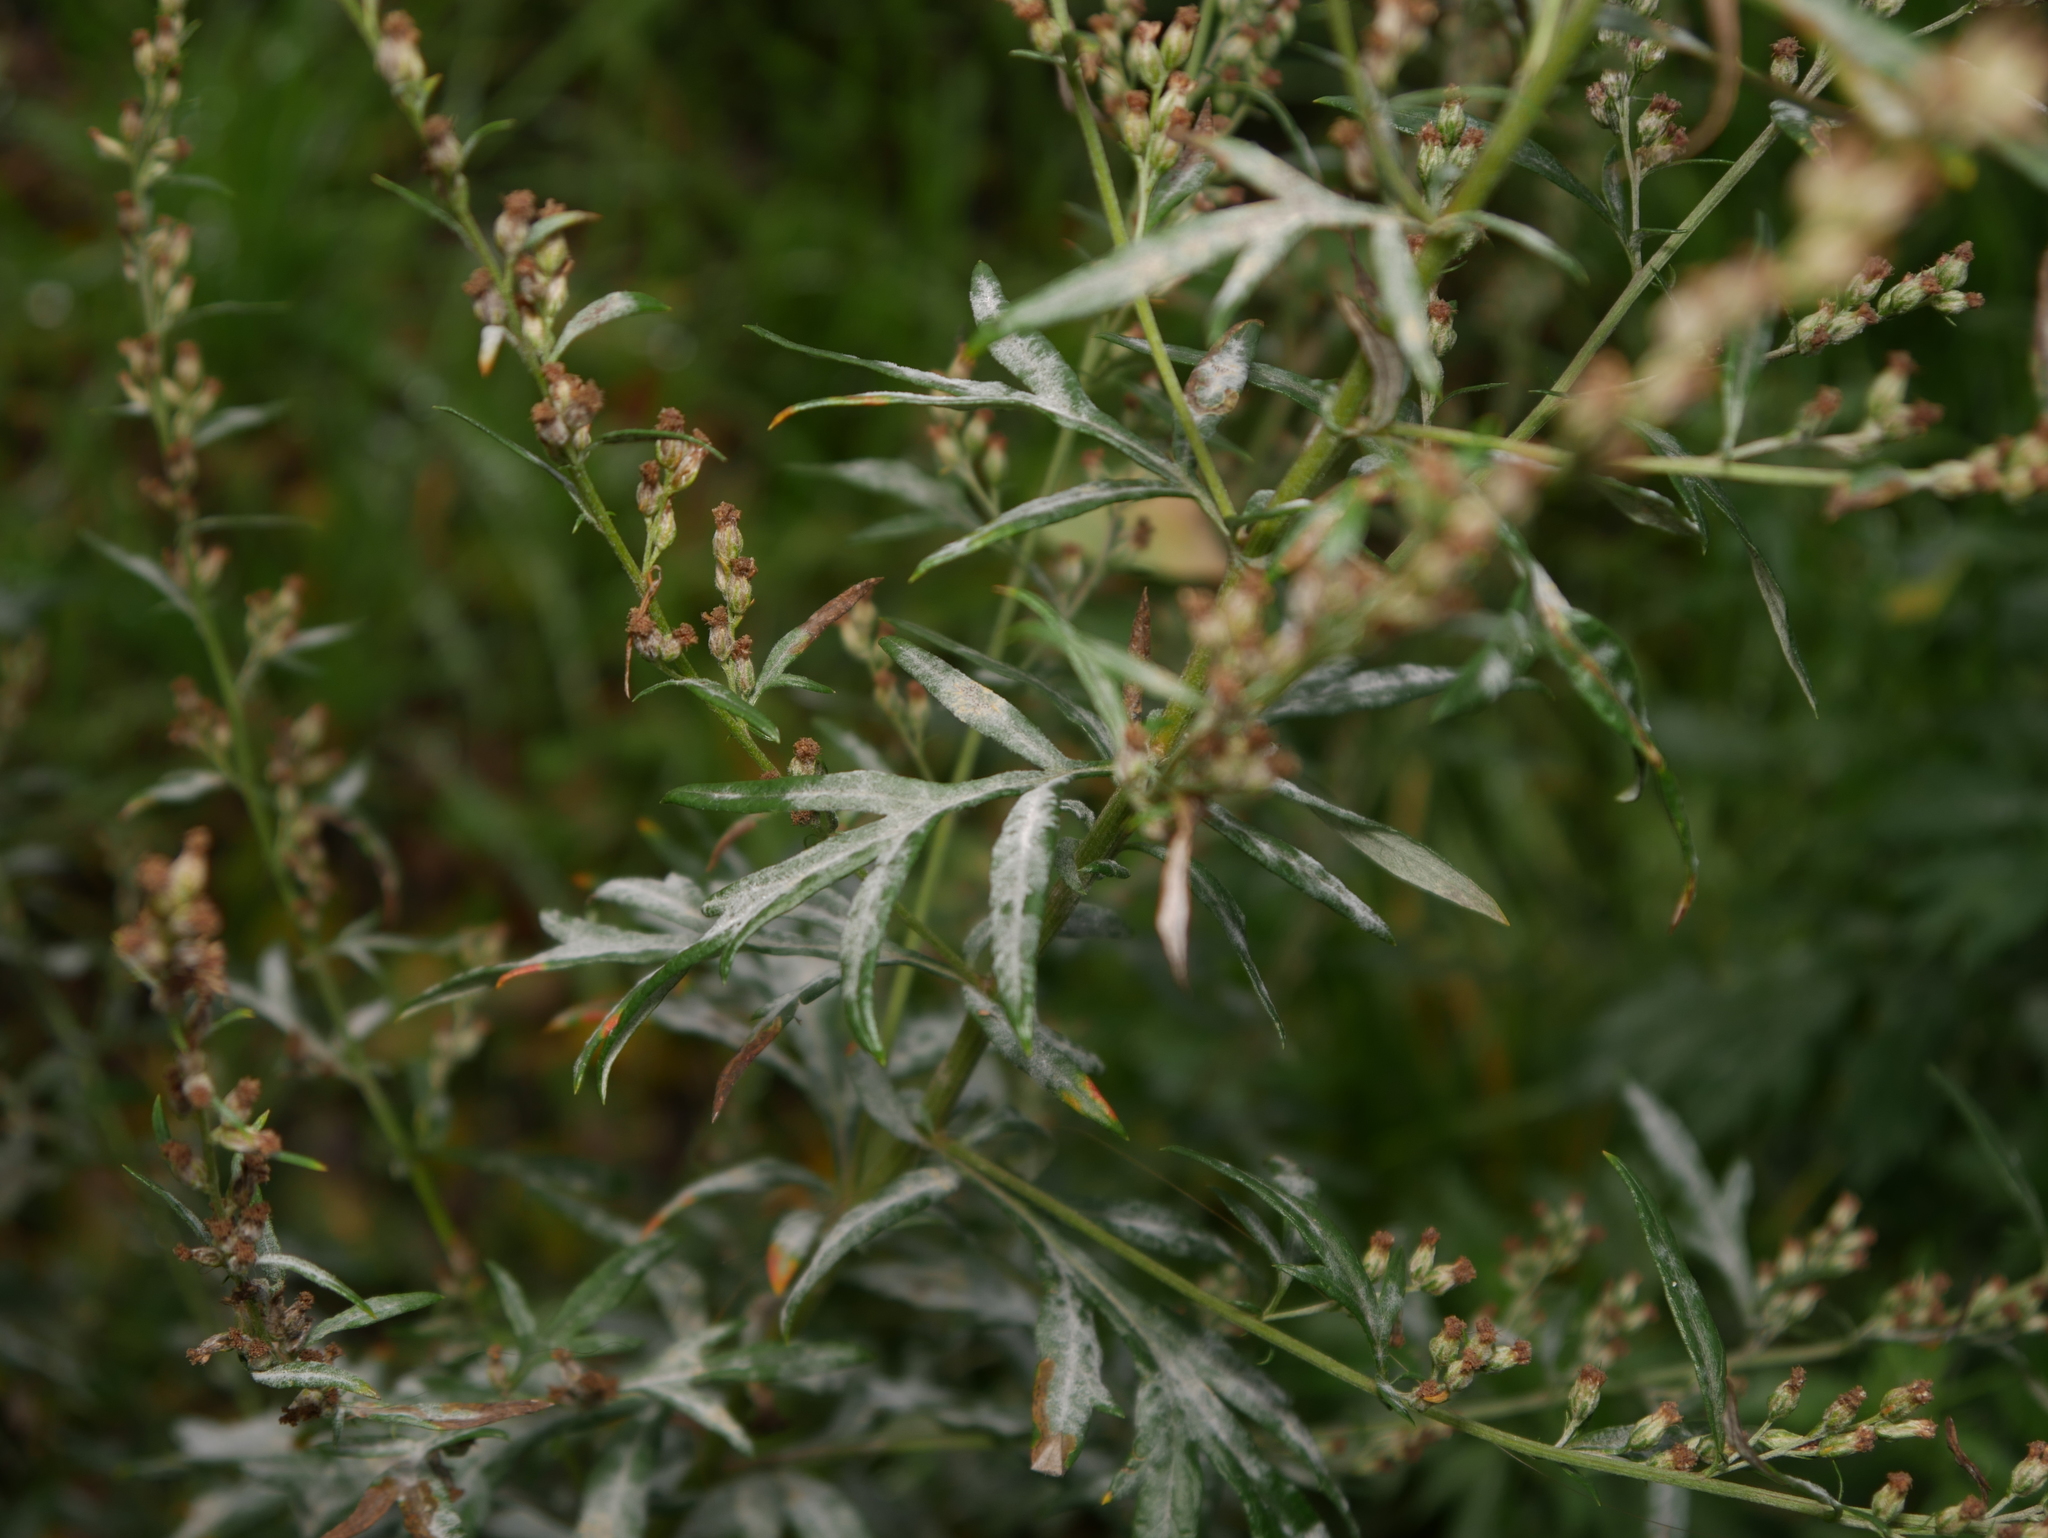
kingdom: Plantae
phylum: Tracheophyta
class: Magnoliopsida
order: Asterales
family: Asteraceae
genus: Artemisia
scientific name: Artemisia vulgaris
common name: Mugwort
